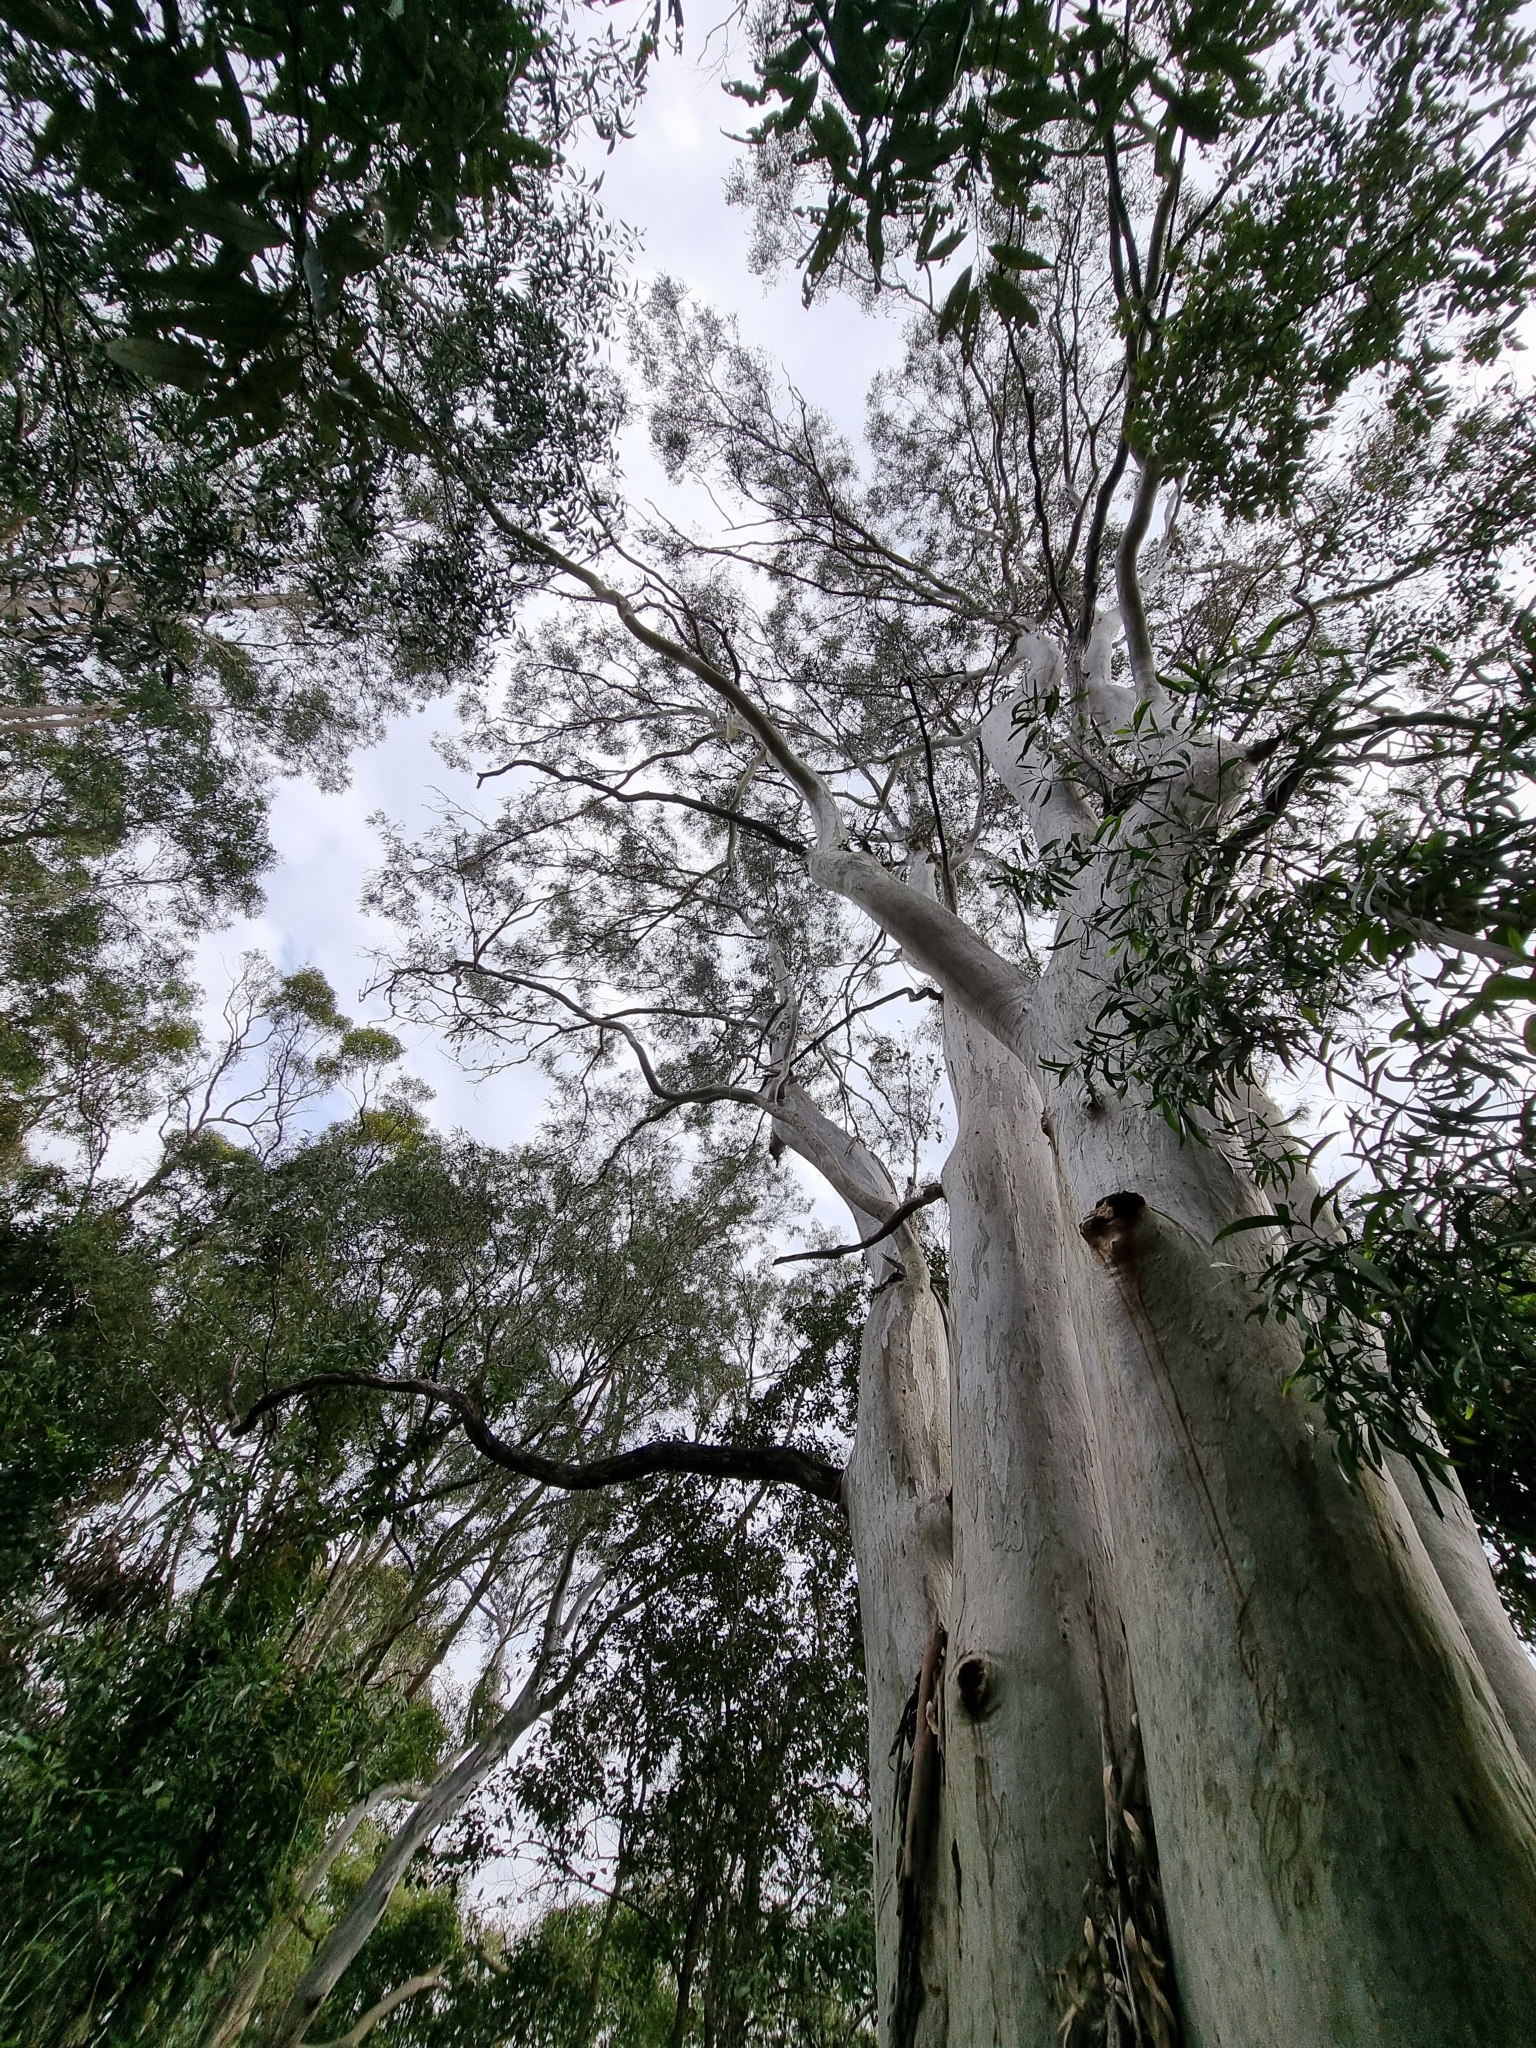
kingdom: Plantae
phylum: Tracheophyta
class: Magnoliopsida
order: Myrtales
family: Myrtaceae
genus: Eucalyptus
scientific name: Eucalyptus racemosa
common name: Scribbly gum
